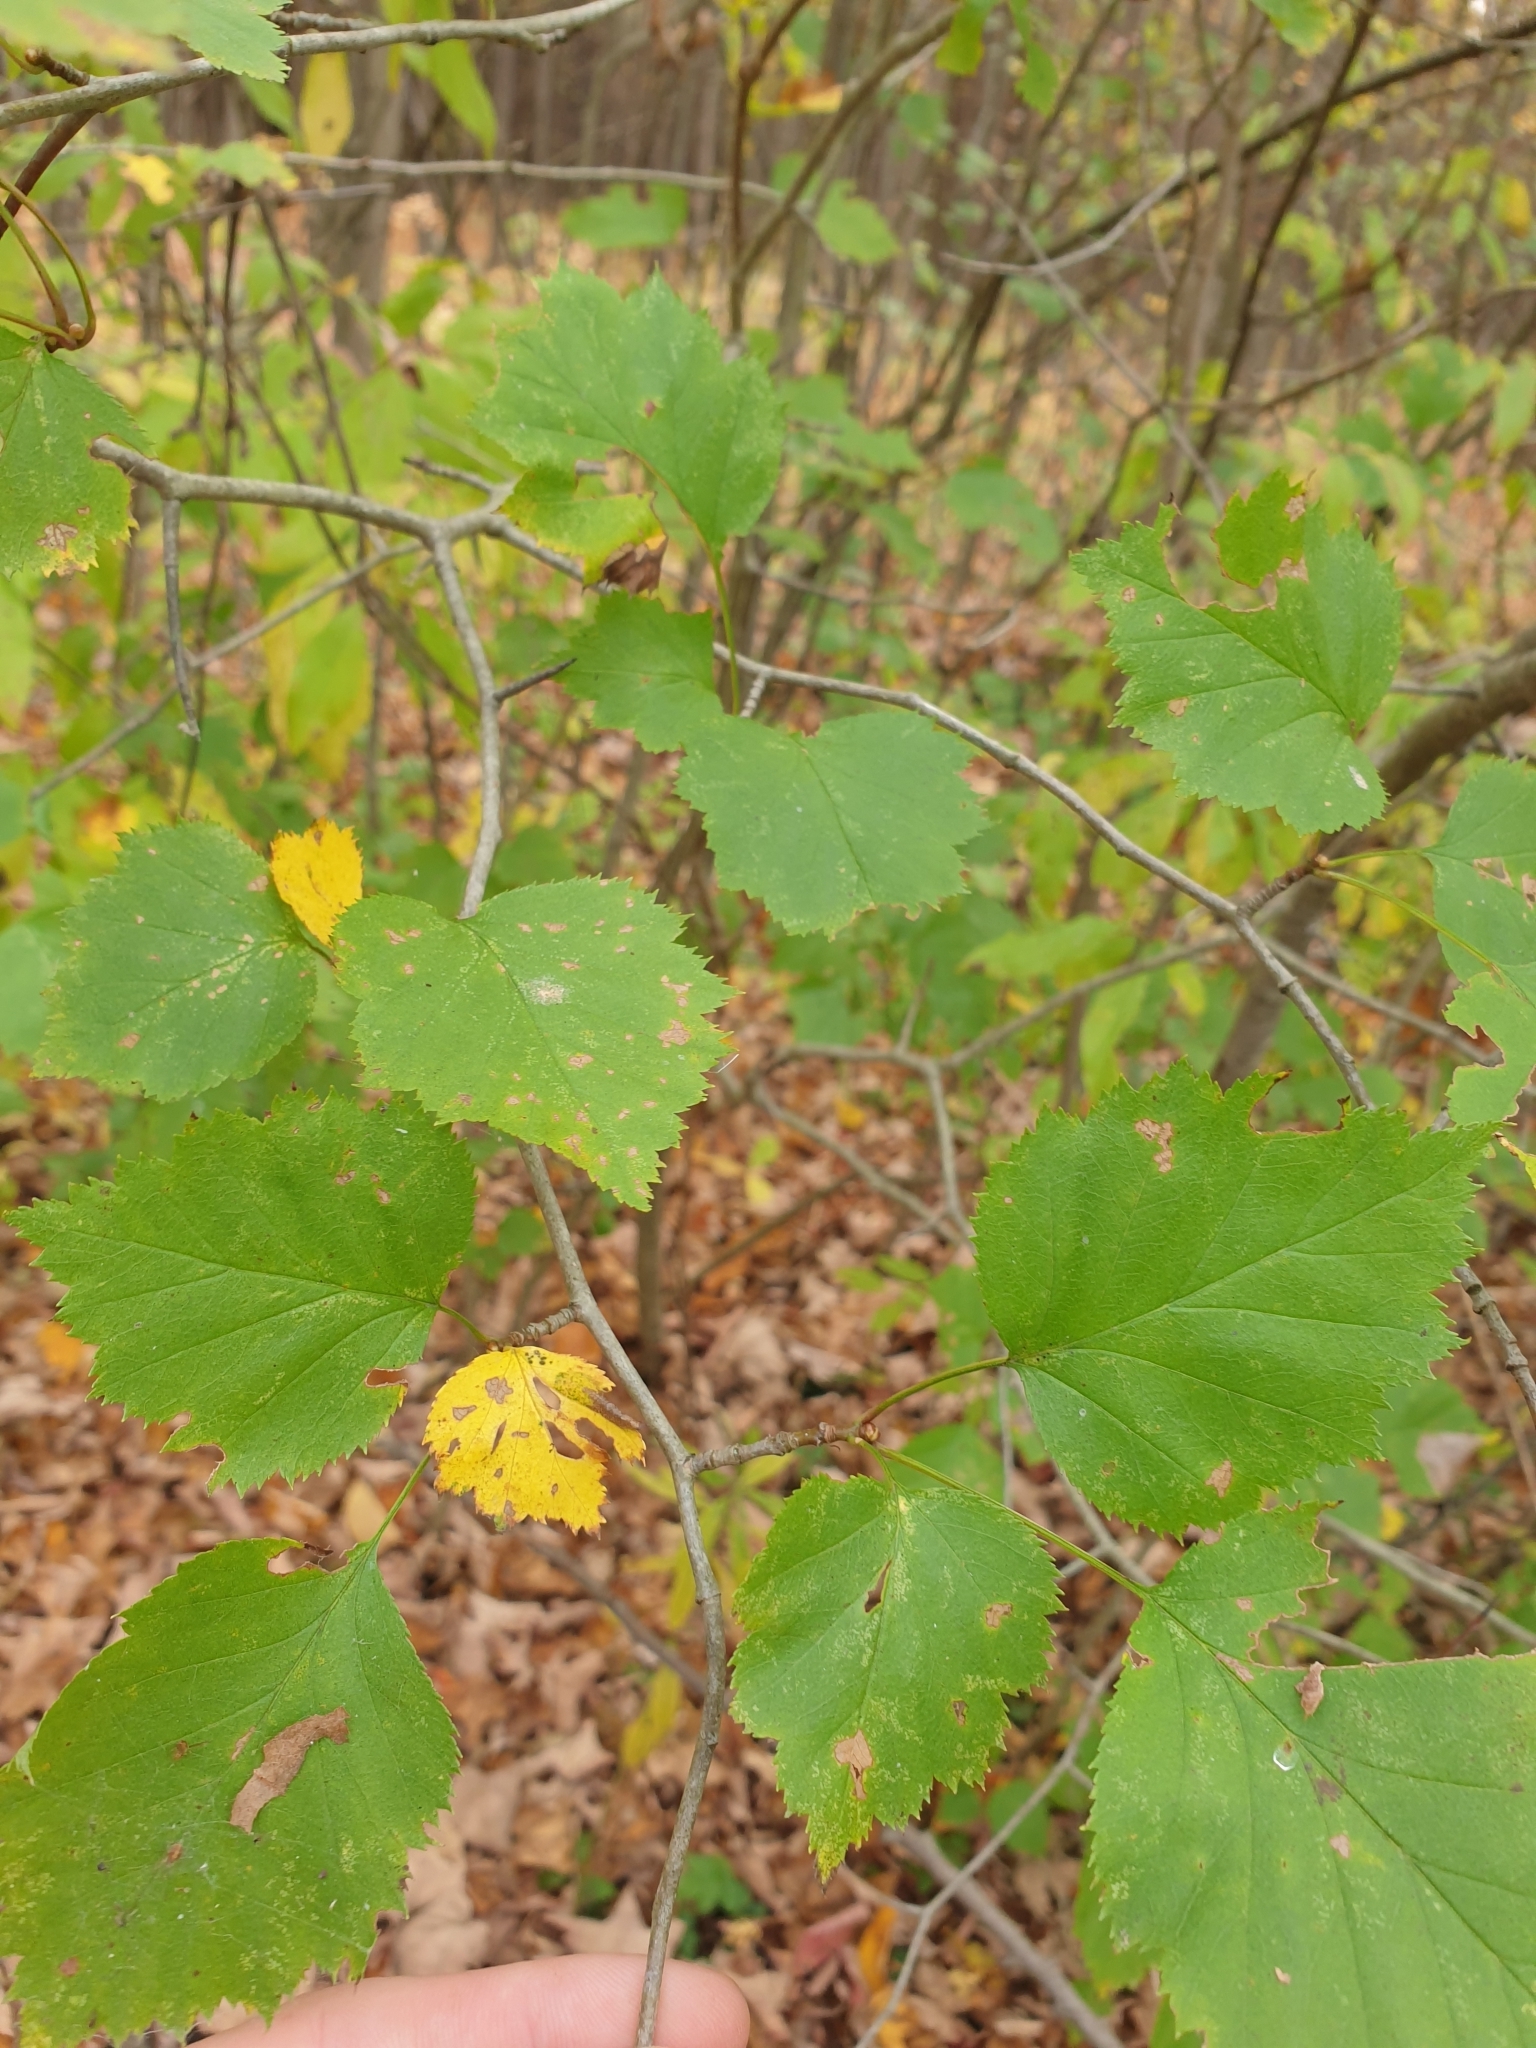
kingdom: Plantae
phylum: Tracheophyta
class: Magnoliopsida
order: Rosales
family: Rosaceae
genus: Crataegus
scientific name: Crataegus
